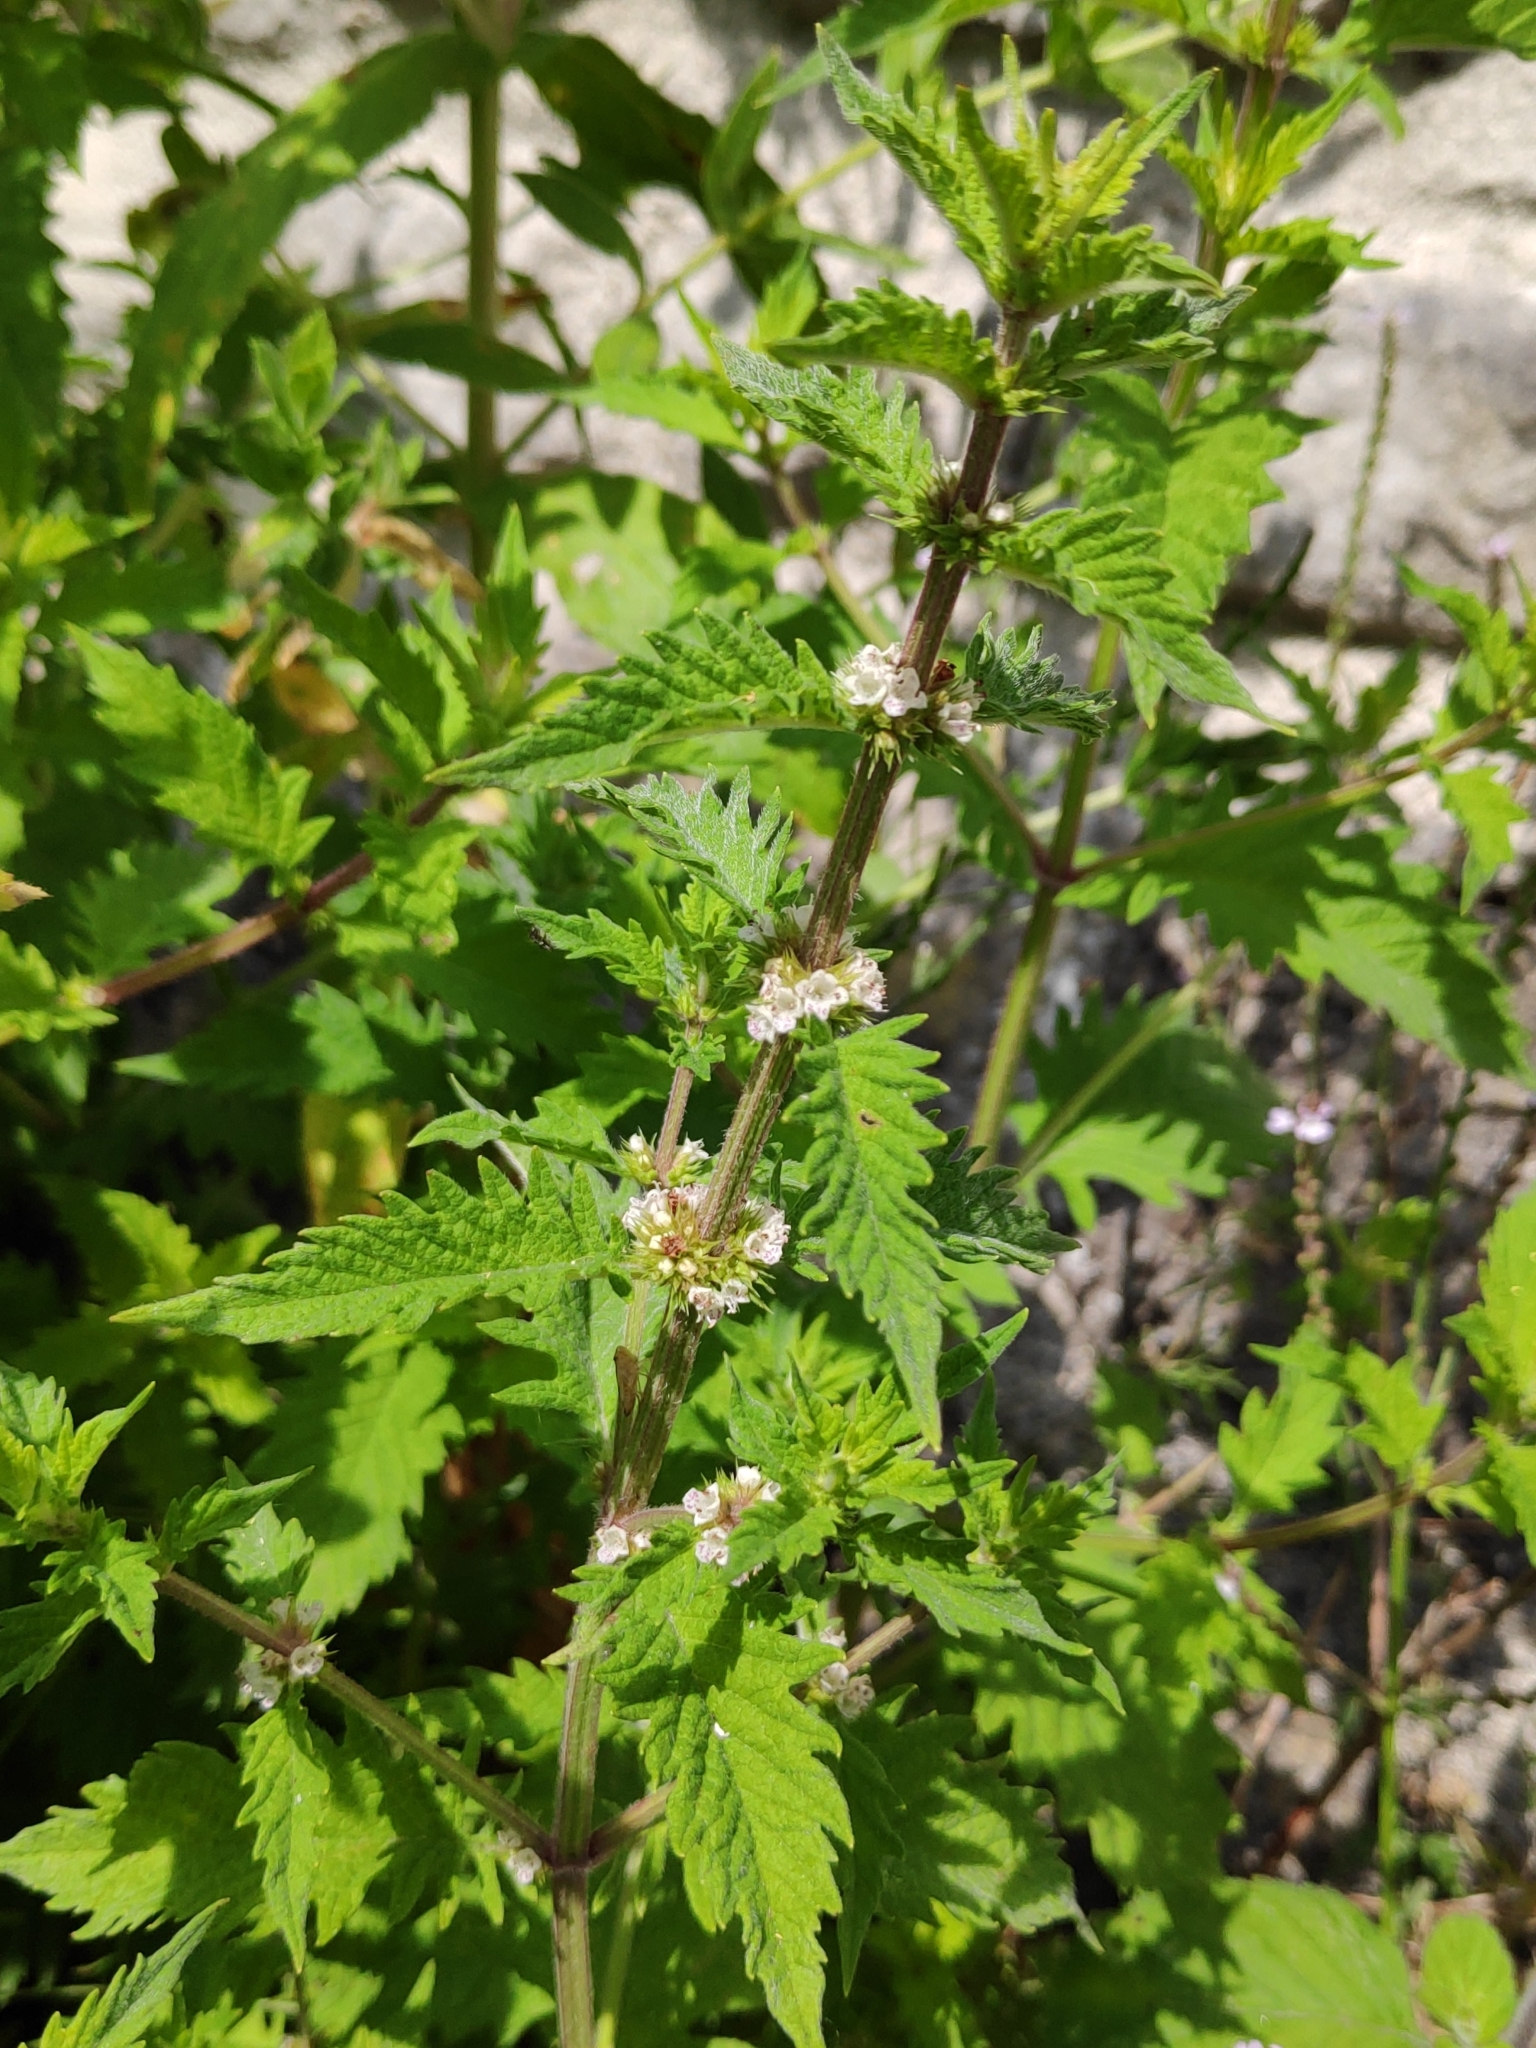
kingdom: Plantae
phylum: Tracheophyta
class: Magnoliopsida
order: Lamiales
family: Lamiaceae
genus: Lycopus
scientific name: Lycopus europaeus
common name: European bugleweed
